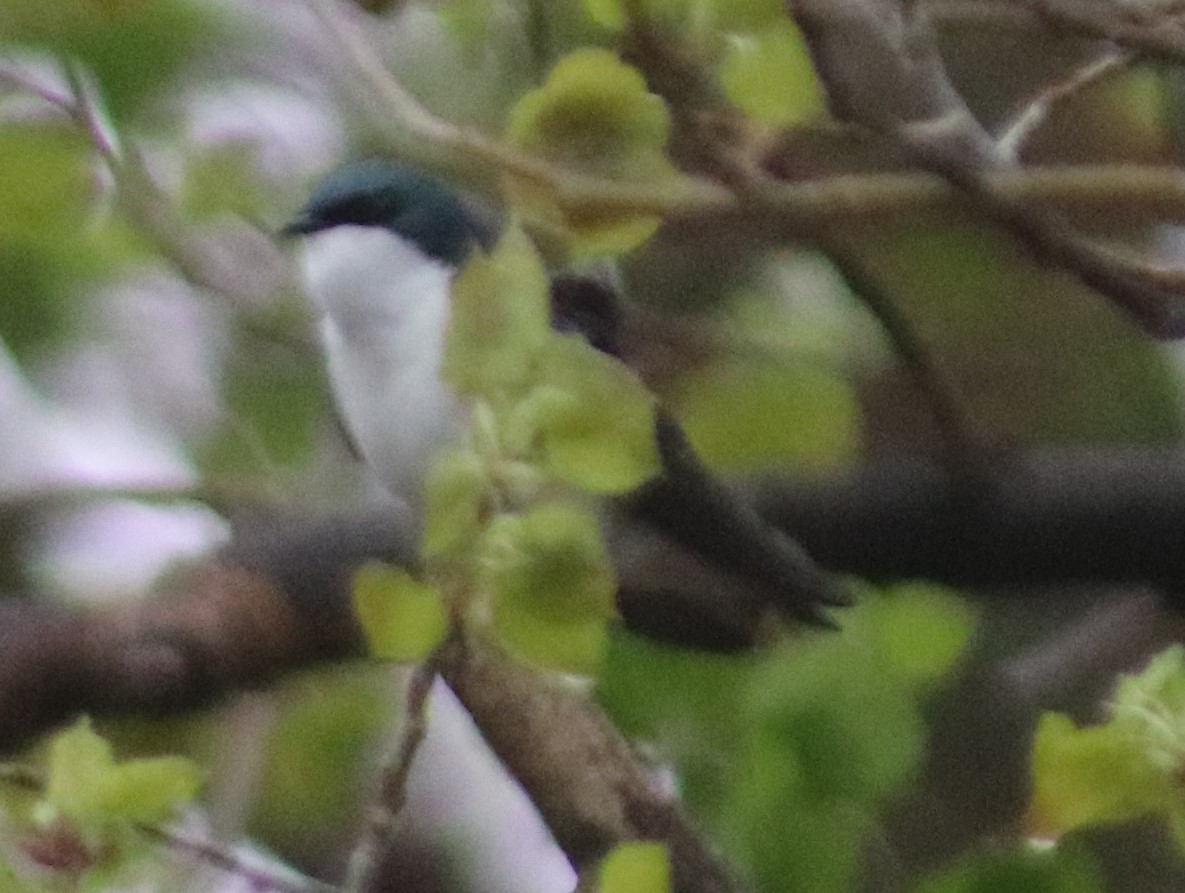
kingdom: Animalia
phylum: Chordata
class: Aves
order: Passeriformes
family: Hirundinidae
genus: Tachycineta
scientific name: Tachycineta bicolor
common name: Tree swallow
